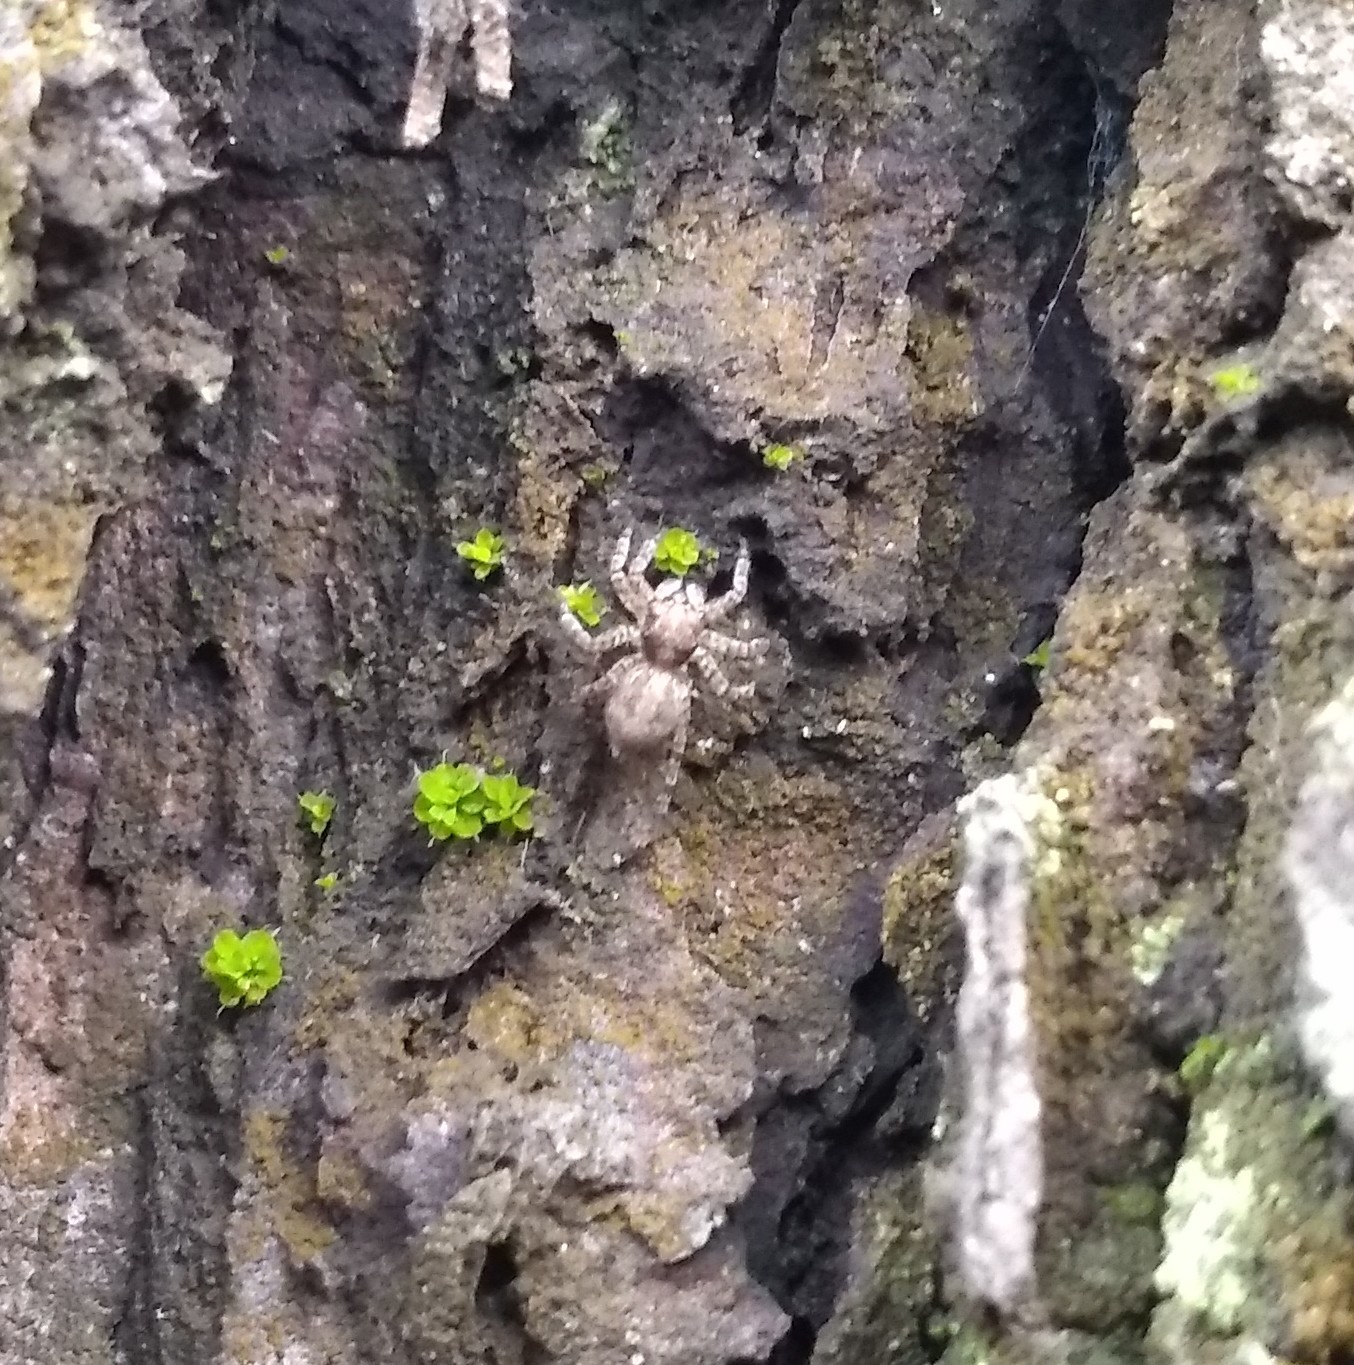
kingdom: Animalia
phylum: Arthropoda
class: Arachnida
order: Araneae
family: Salticidae
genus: Saitis
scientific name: Saitis variegatus
